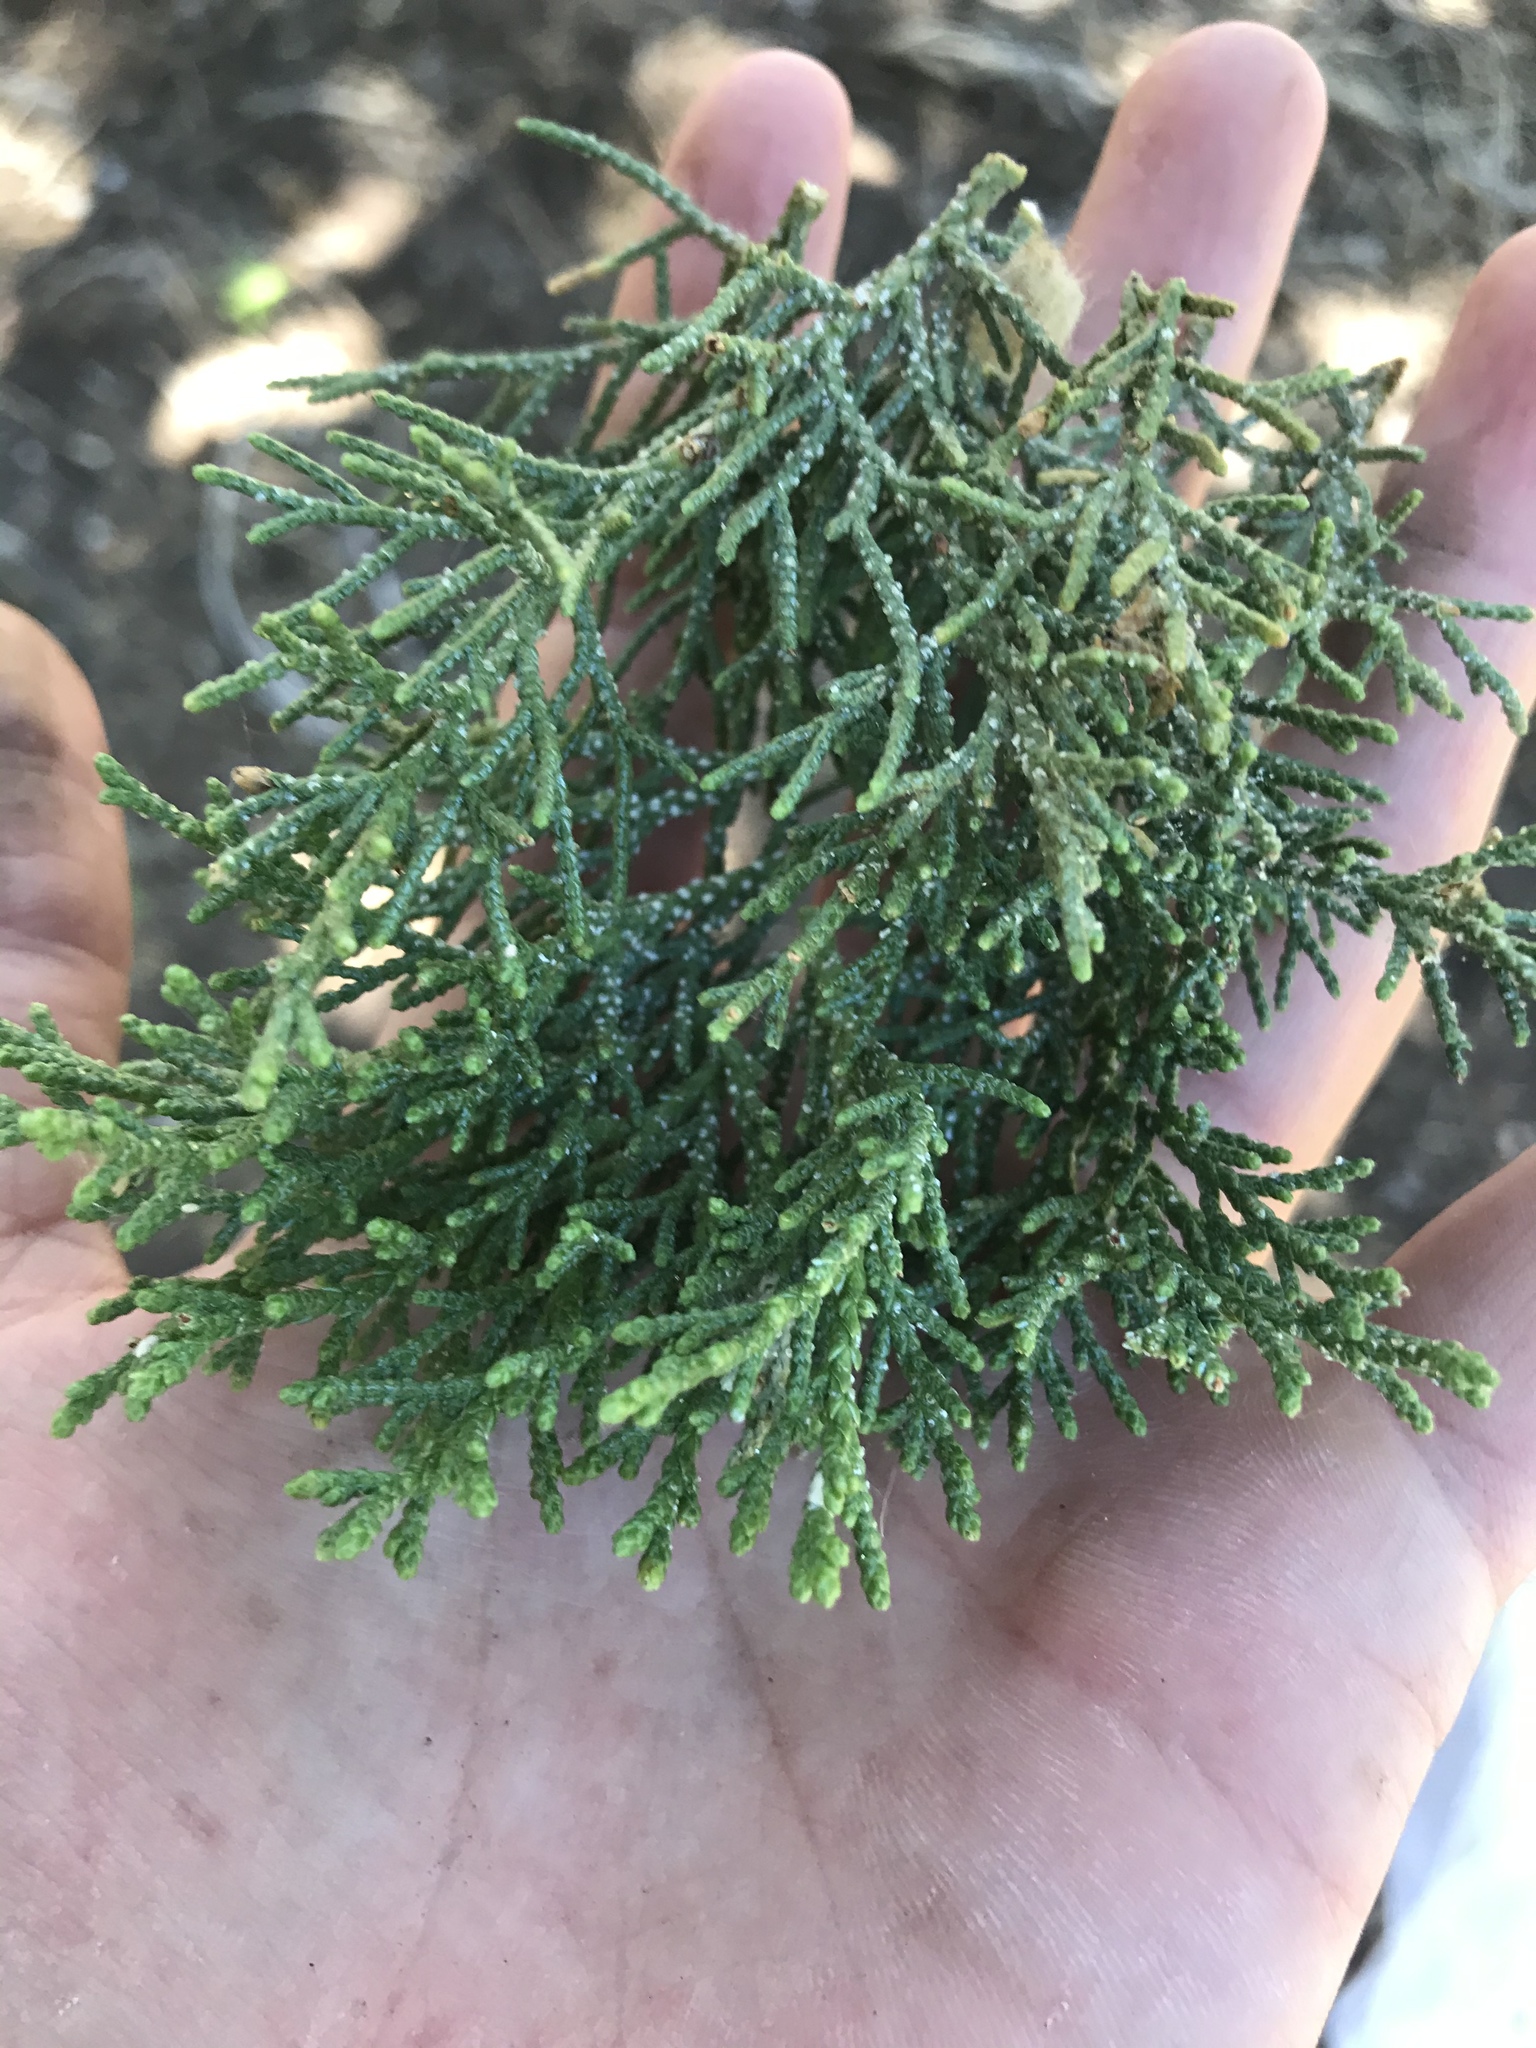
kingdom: Plantae
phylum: Tracheophyta
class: Pinopsida
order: Pinales
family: Cupressaceae
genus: Juniperus
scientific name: Juniperus deppeana
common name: Alligator juniper
